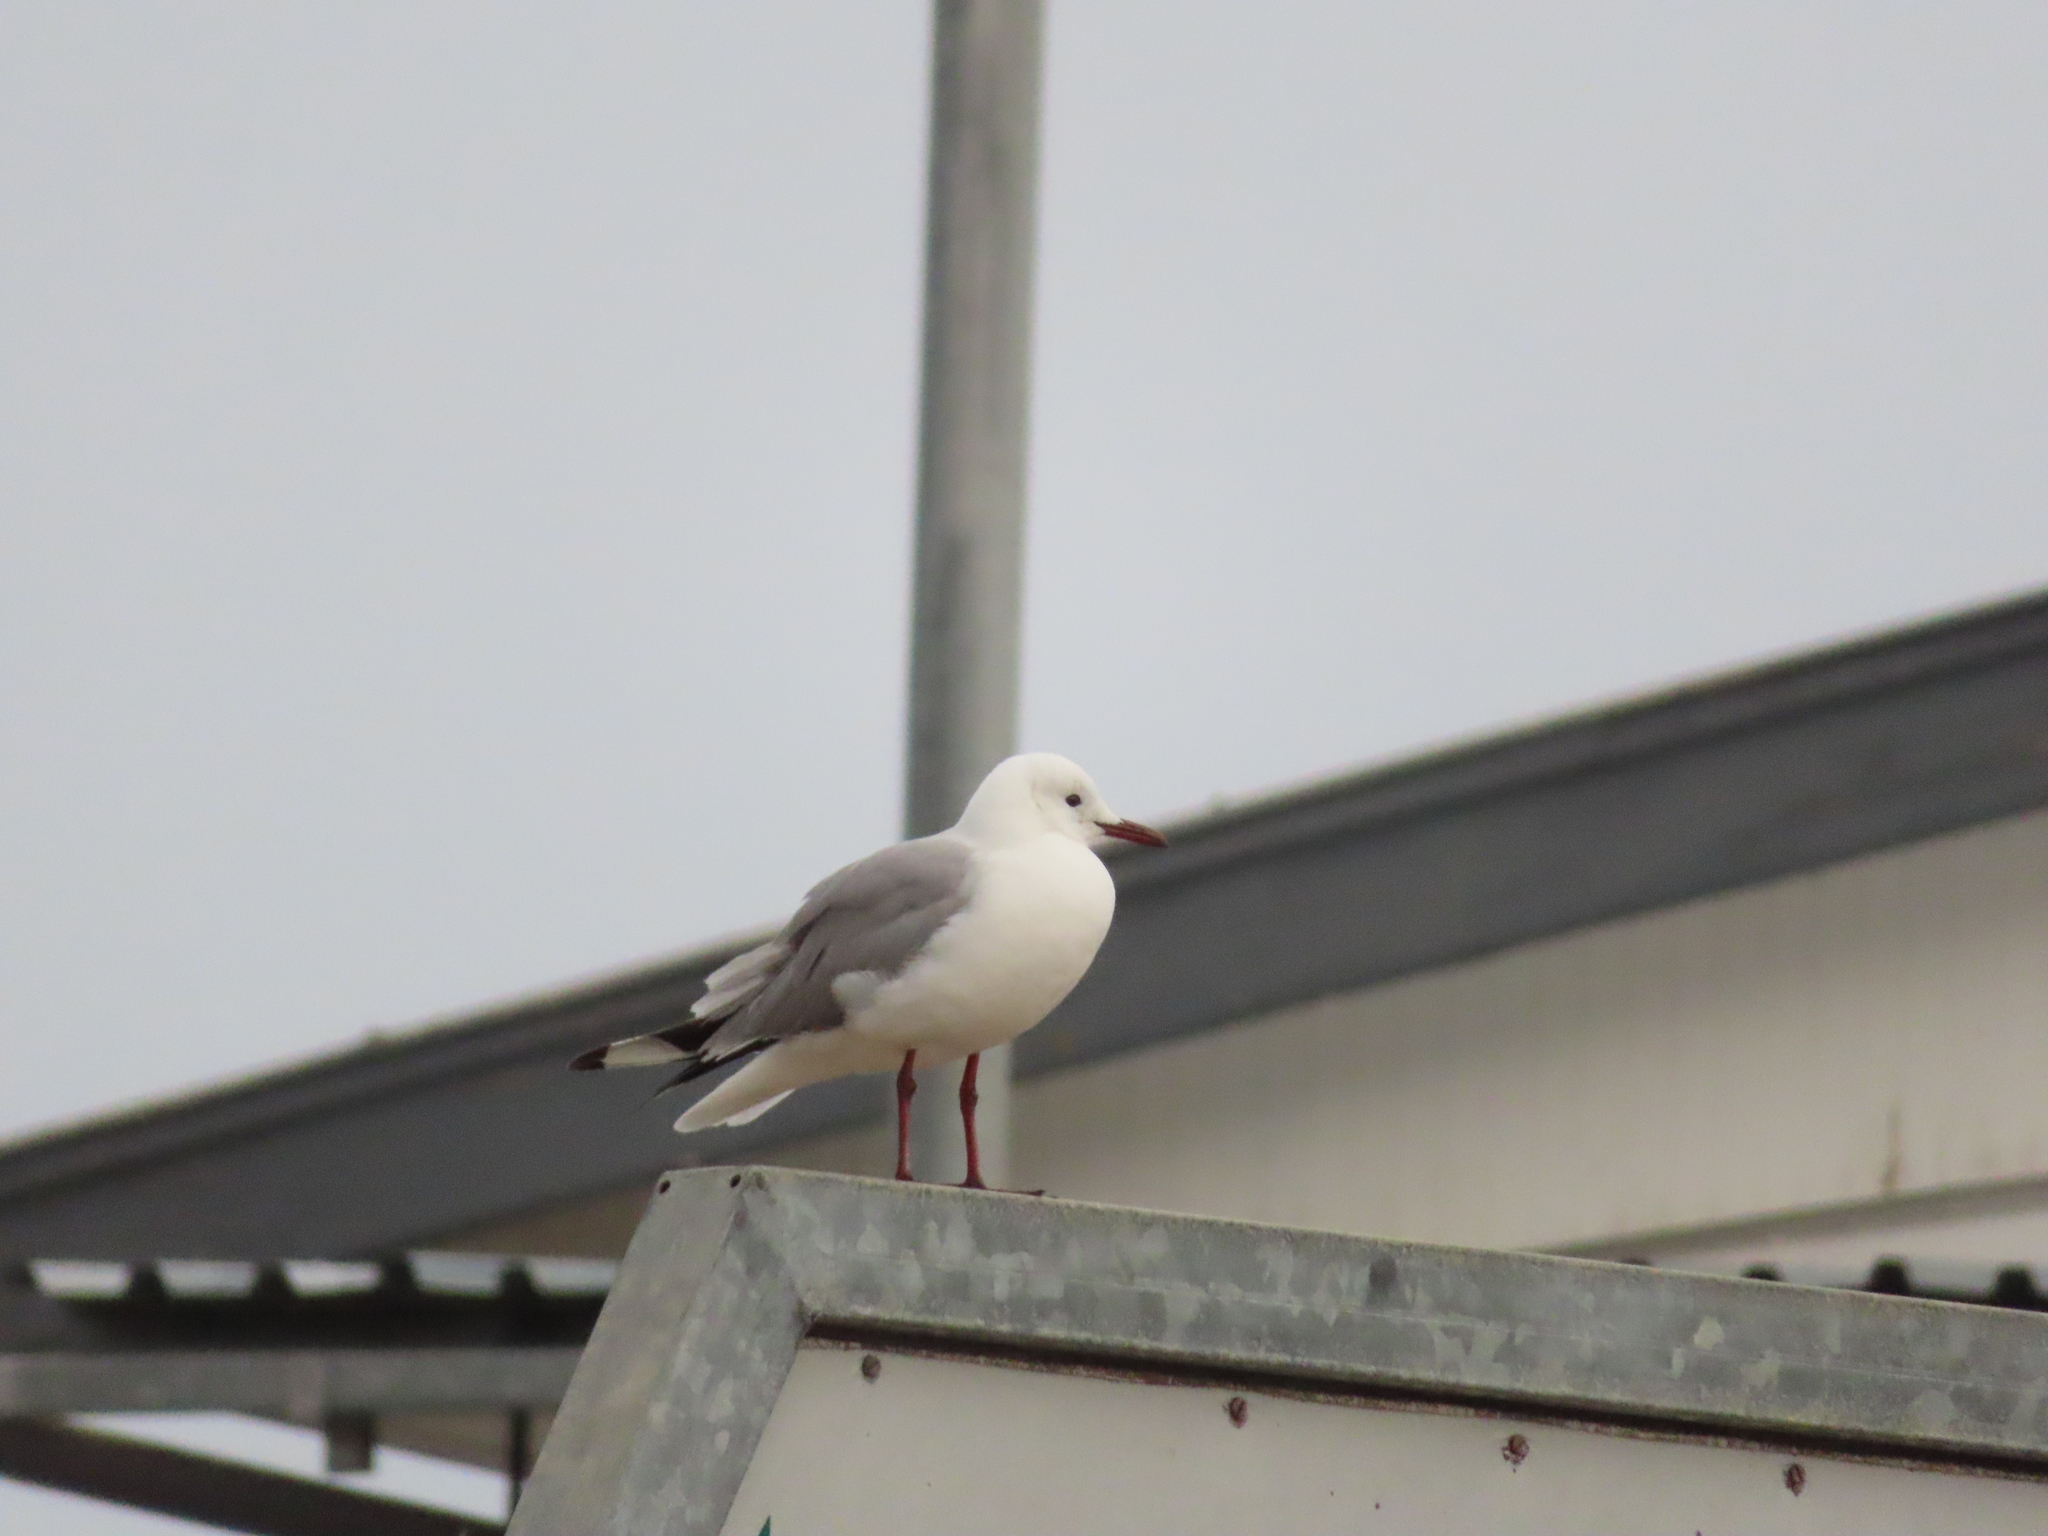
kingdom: Animalia
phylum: Chordata
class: Aves
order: Charadriiformes
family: Laridae
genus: Chroicocephalus
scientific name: Chroicocephalus hartlaubii
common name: Hartlaub's gull
